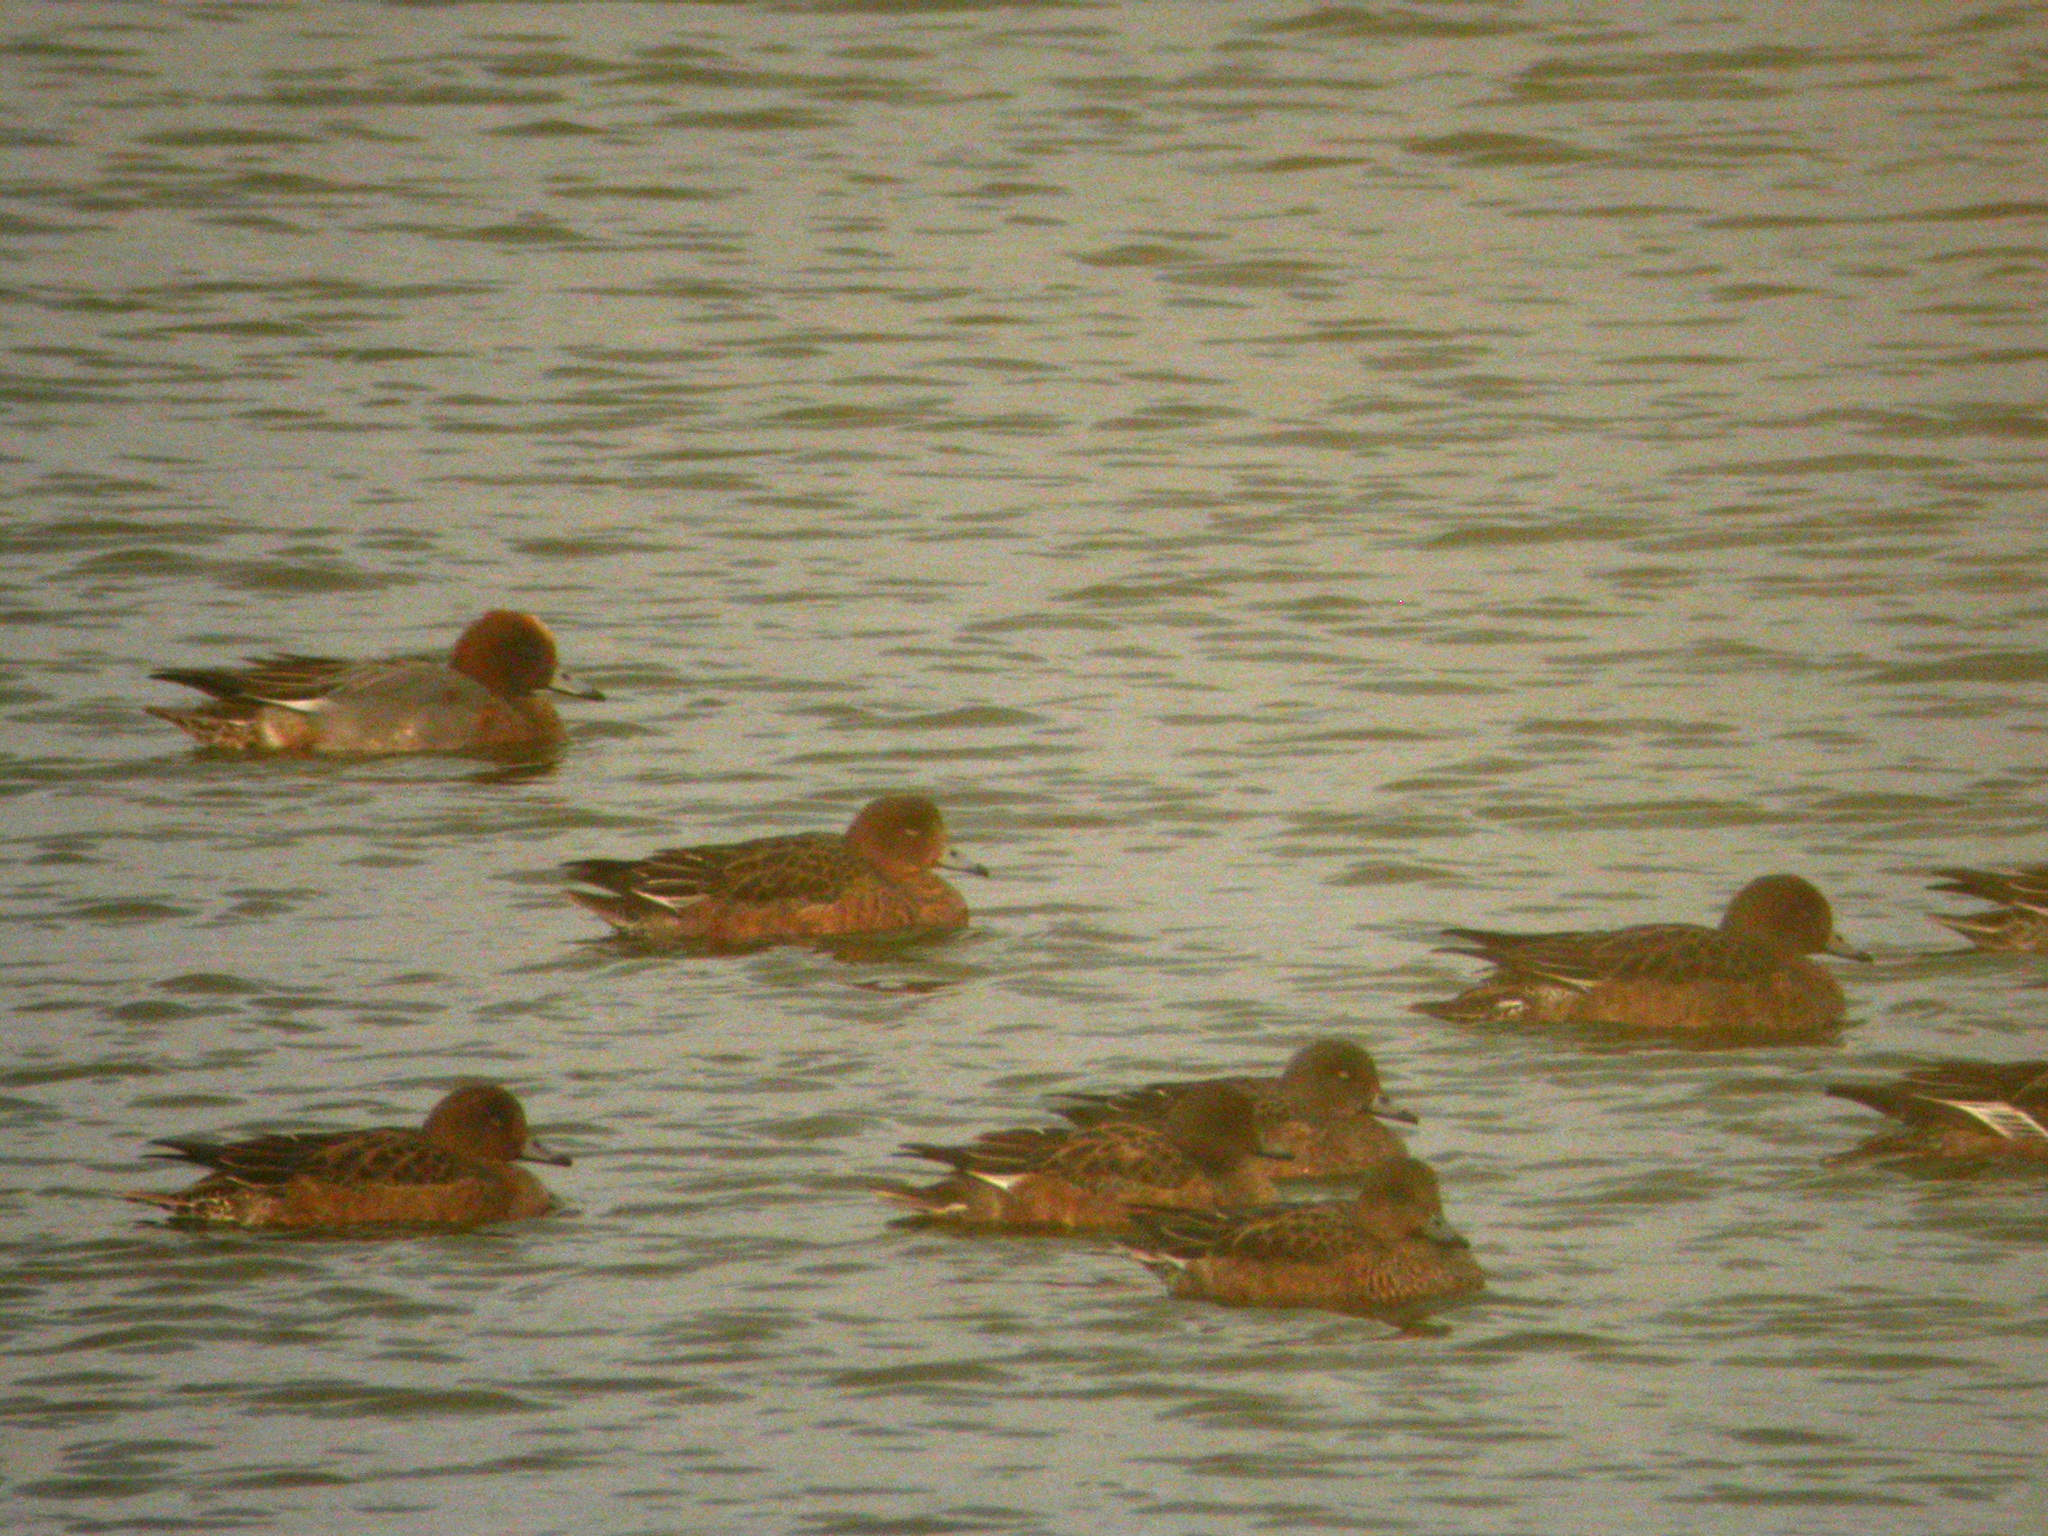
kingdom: Animalia
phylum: Chordata
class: Aves
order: Anseriformes
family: Anatidae
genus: Mareca
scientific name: Mareca penelope
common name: Eurasian wigeon
